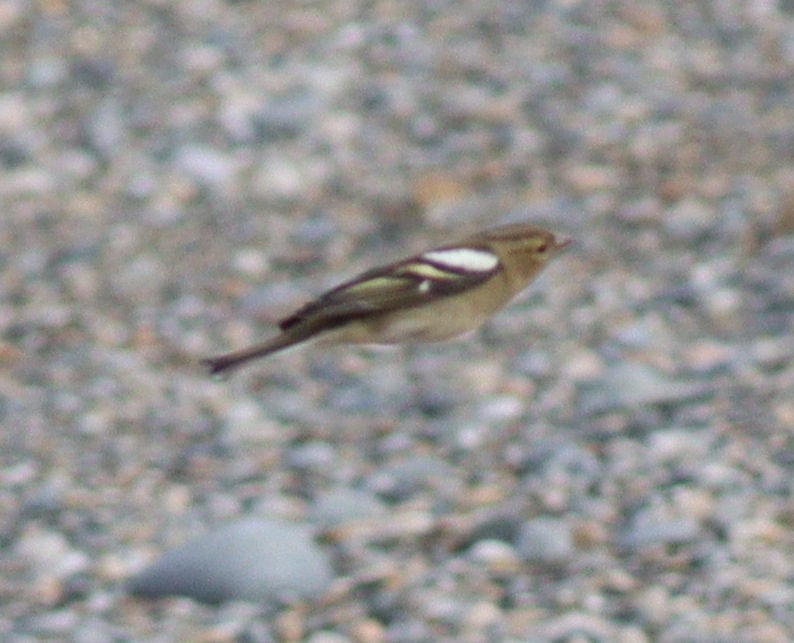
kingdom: Animalia
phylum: Chordata
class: Aves
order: Passeriformes
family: Fringillidae
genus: Fringilla
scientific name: Fringilla coelebs
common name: Common chaffinch
